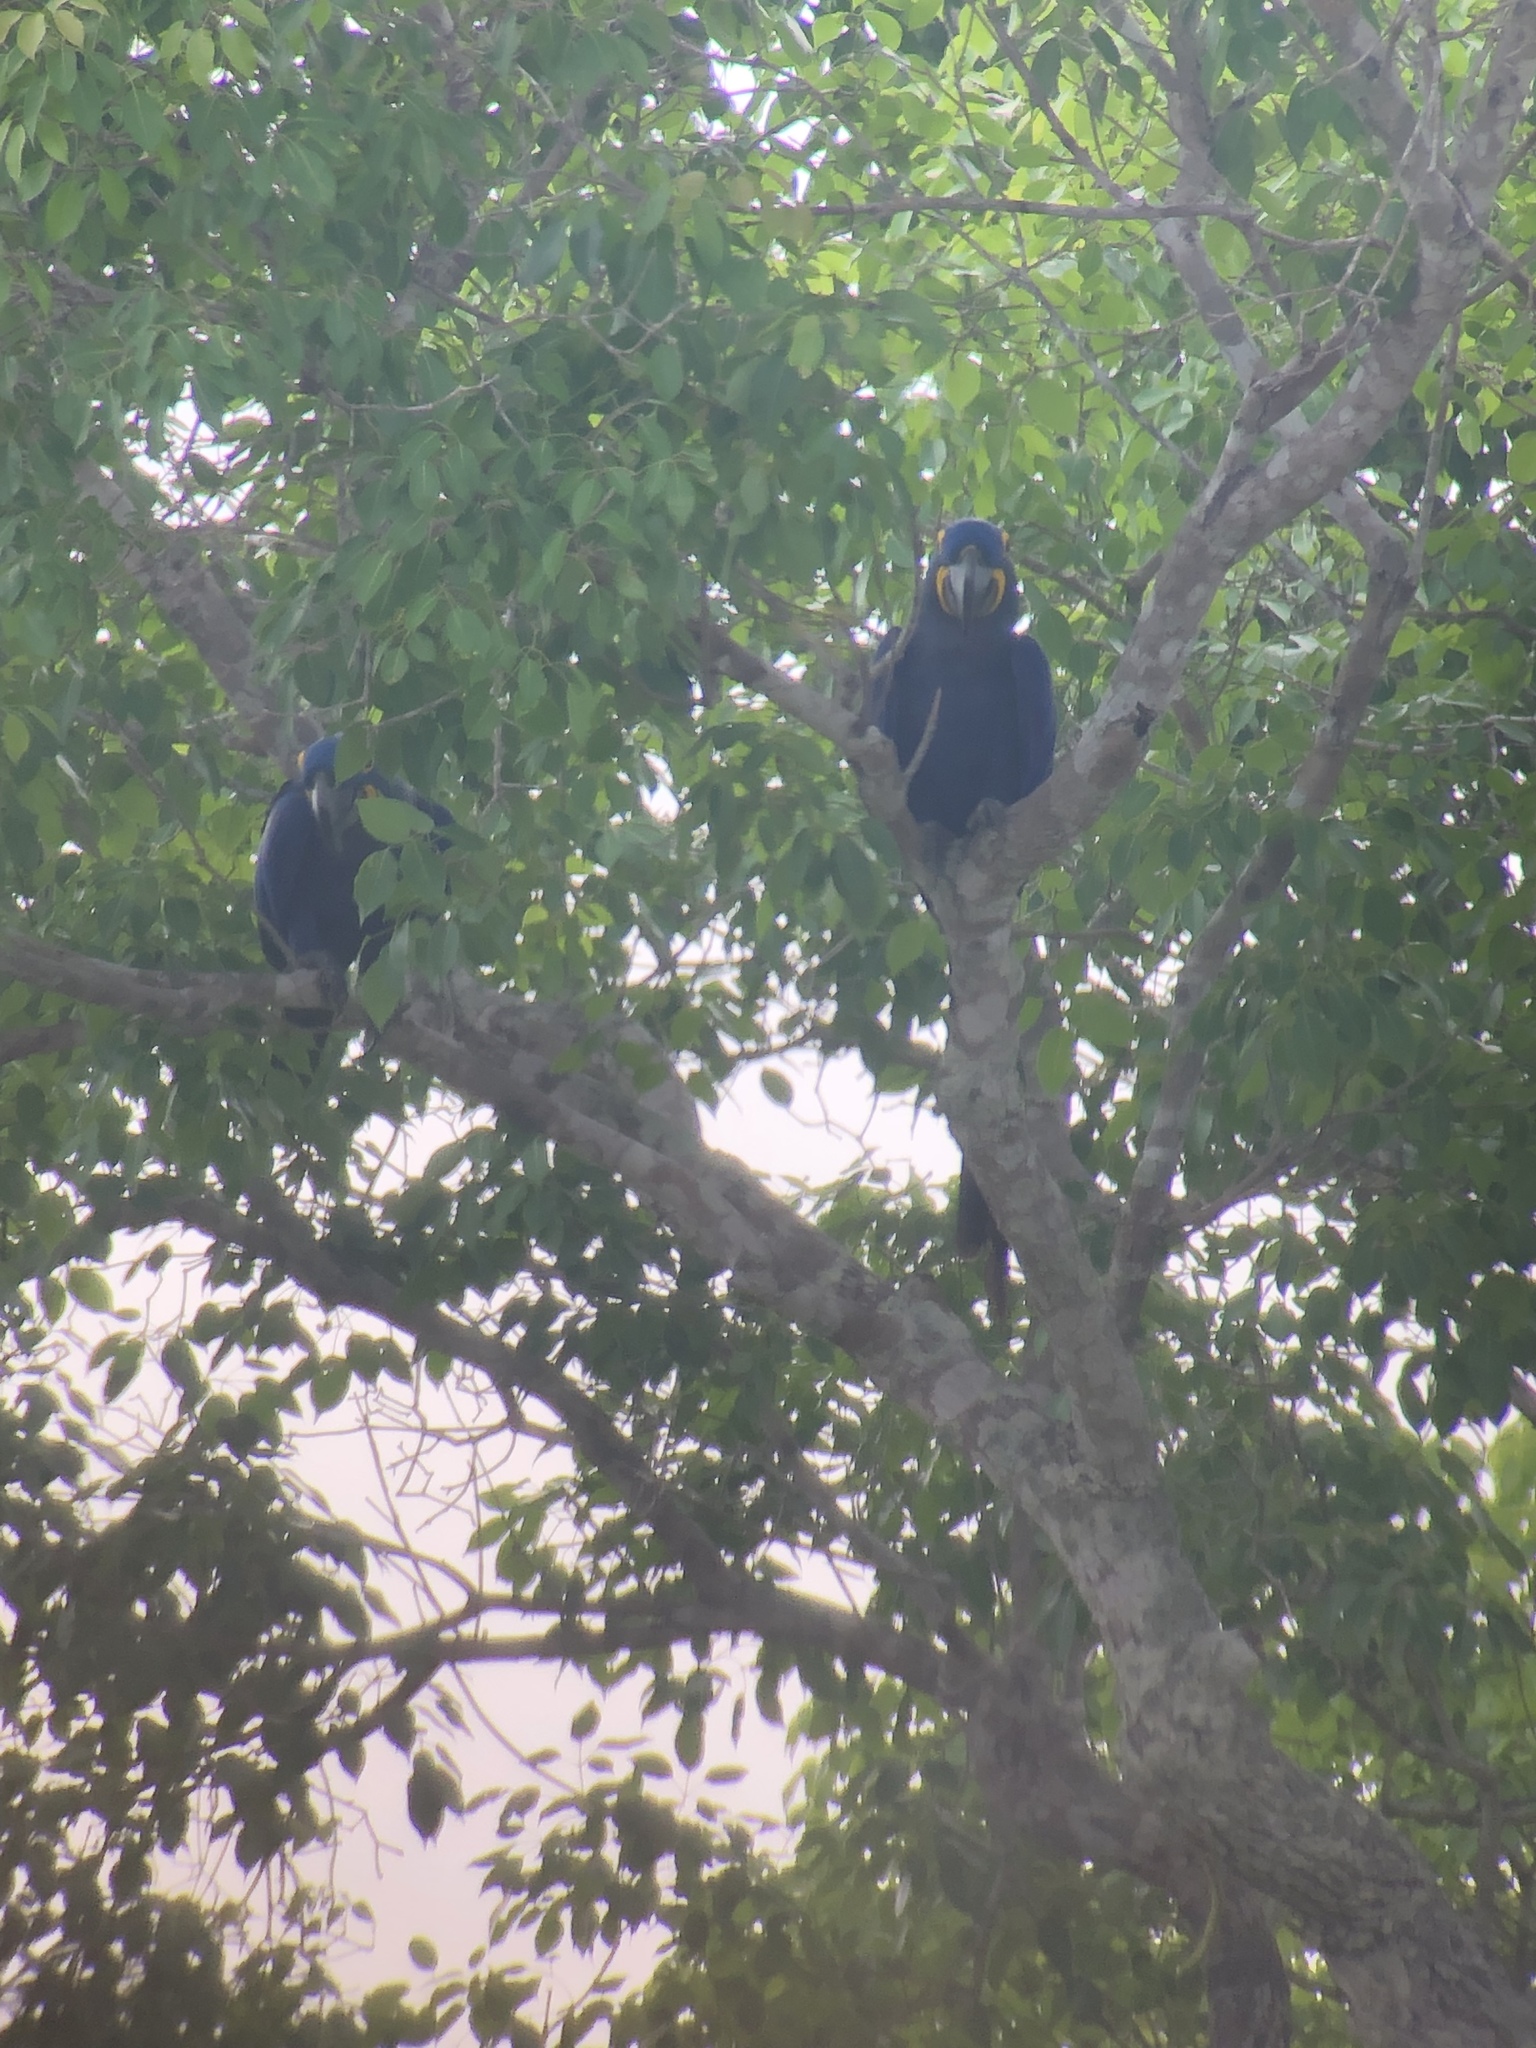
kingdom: Animalia
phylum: Chordata
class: Aves
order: Psittaciformes
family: Psittacidae
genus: Anodorhynchus
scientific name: Anodorhynchus hyacinthinus
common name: Hyacinth macaw
